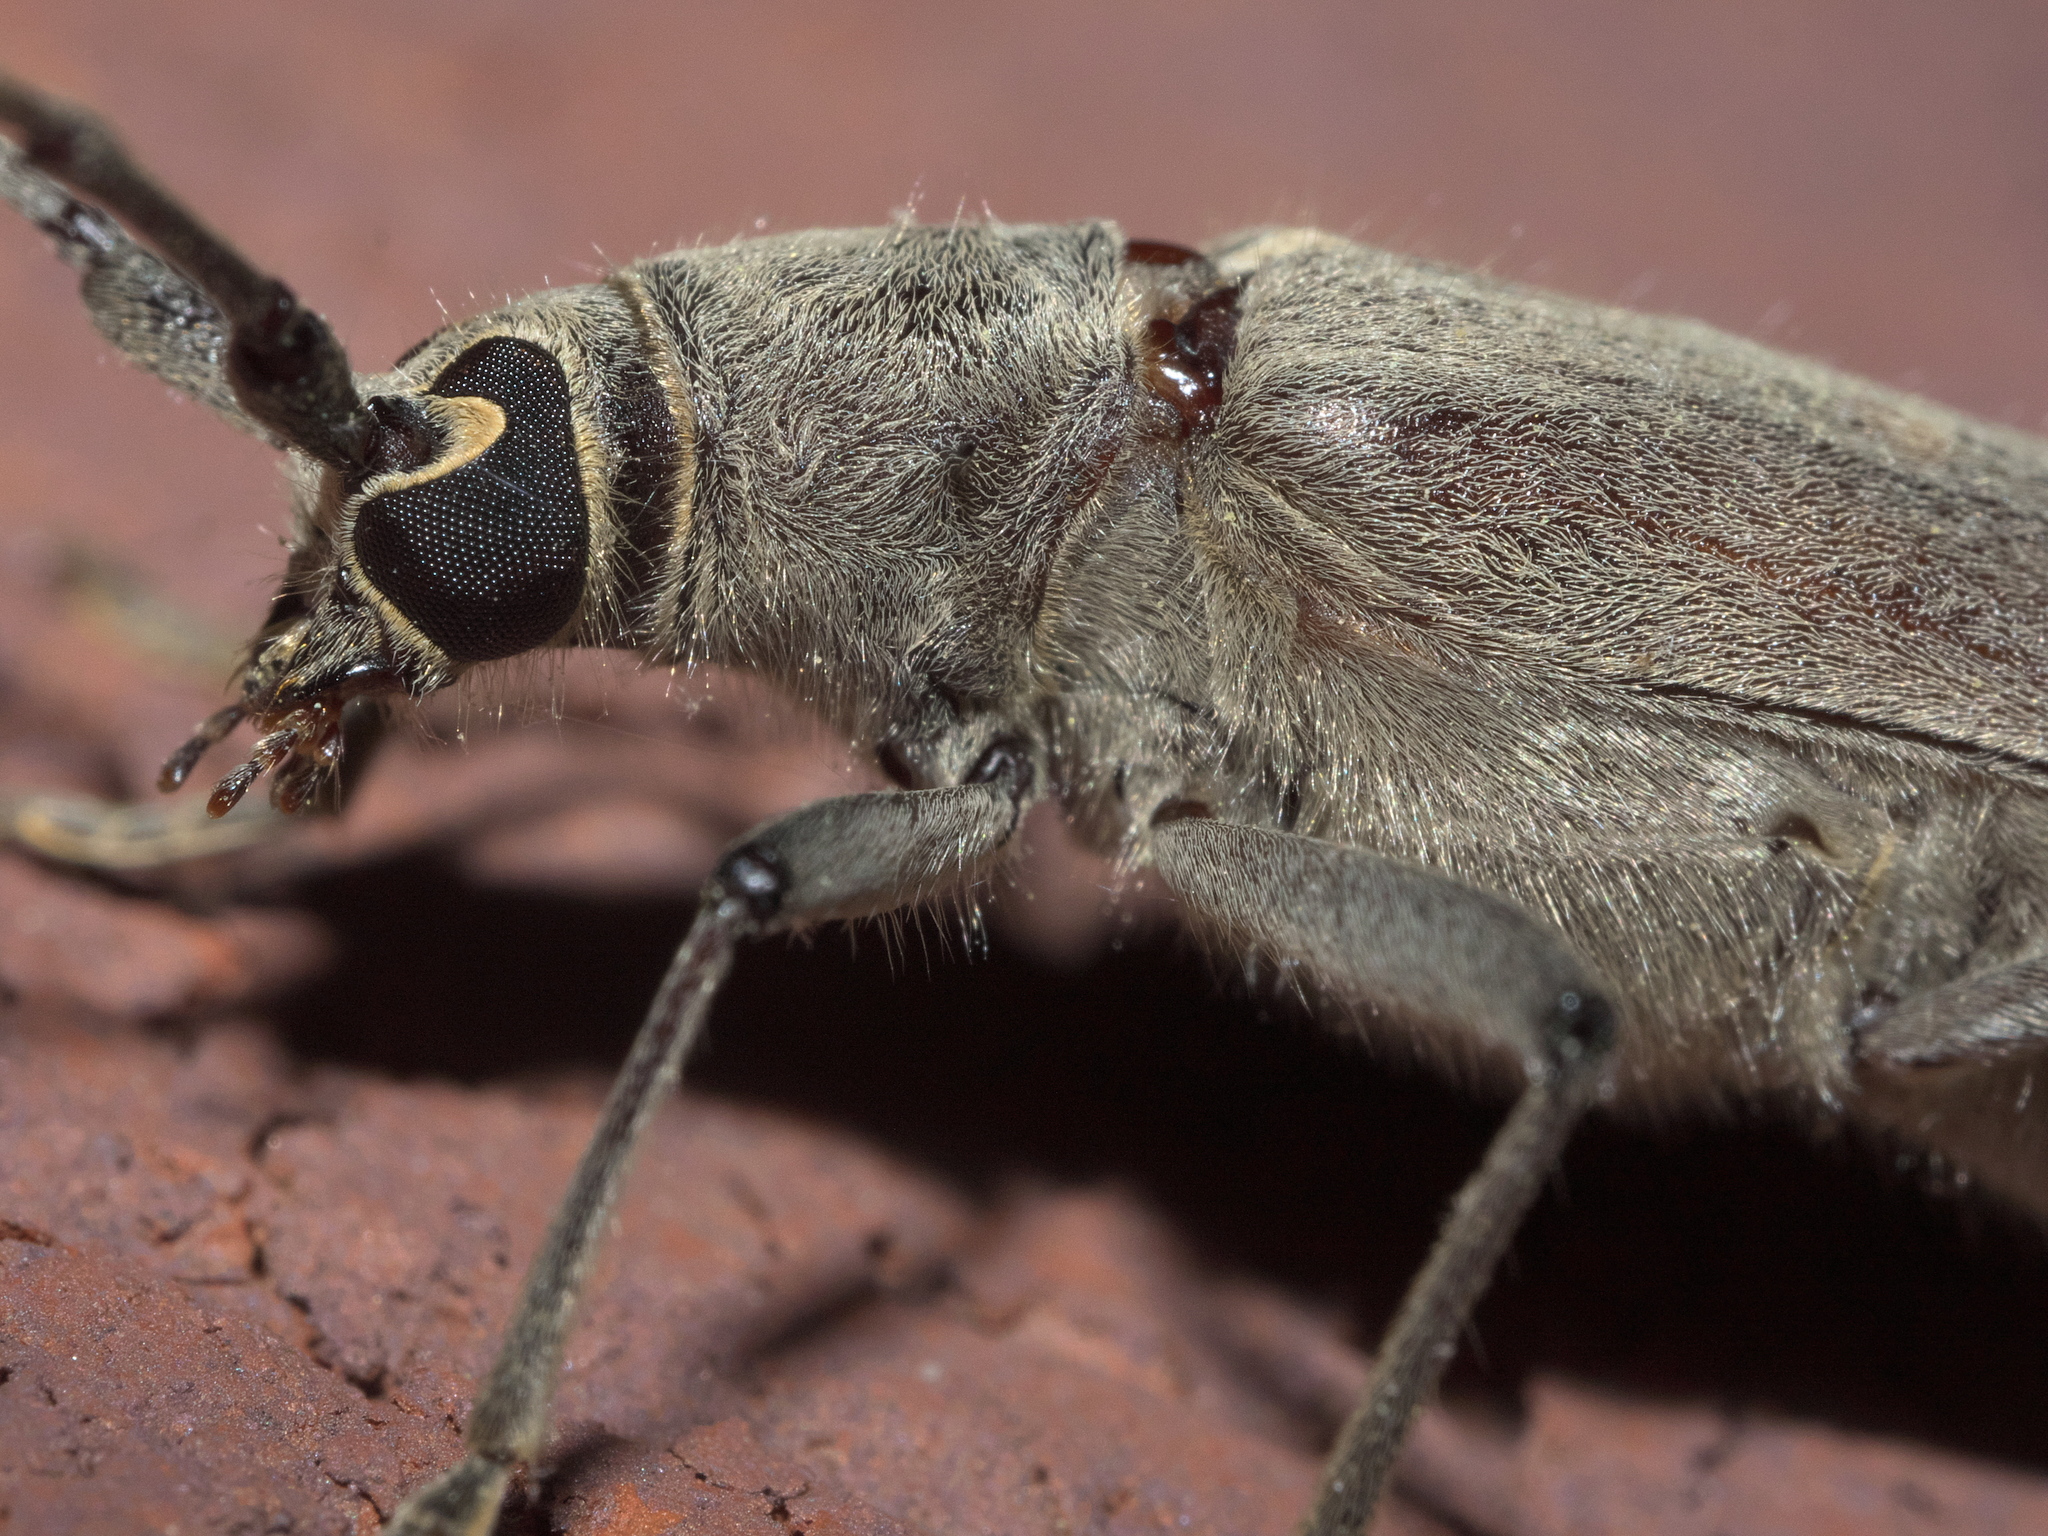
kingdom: Animalia
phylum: Arthropoda
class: Insecta
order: Coleoptera
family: Cerambycidae
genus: Knulliana
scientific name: Knulliana cincta
